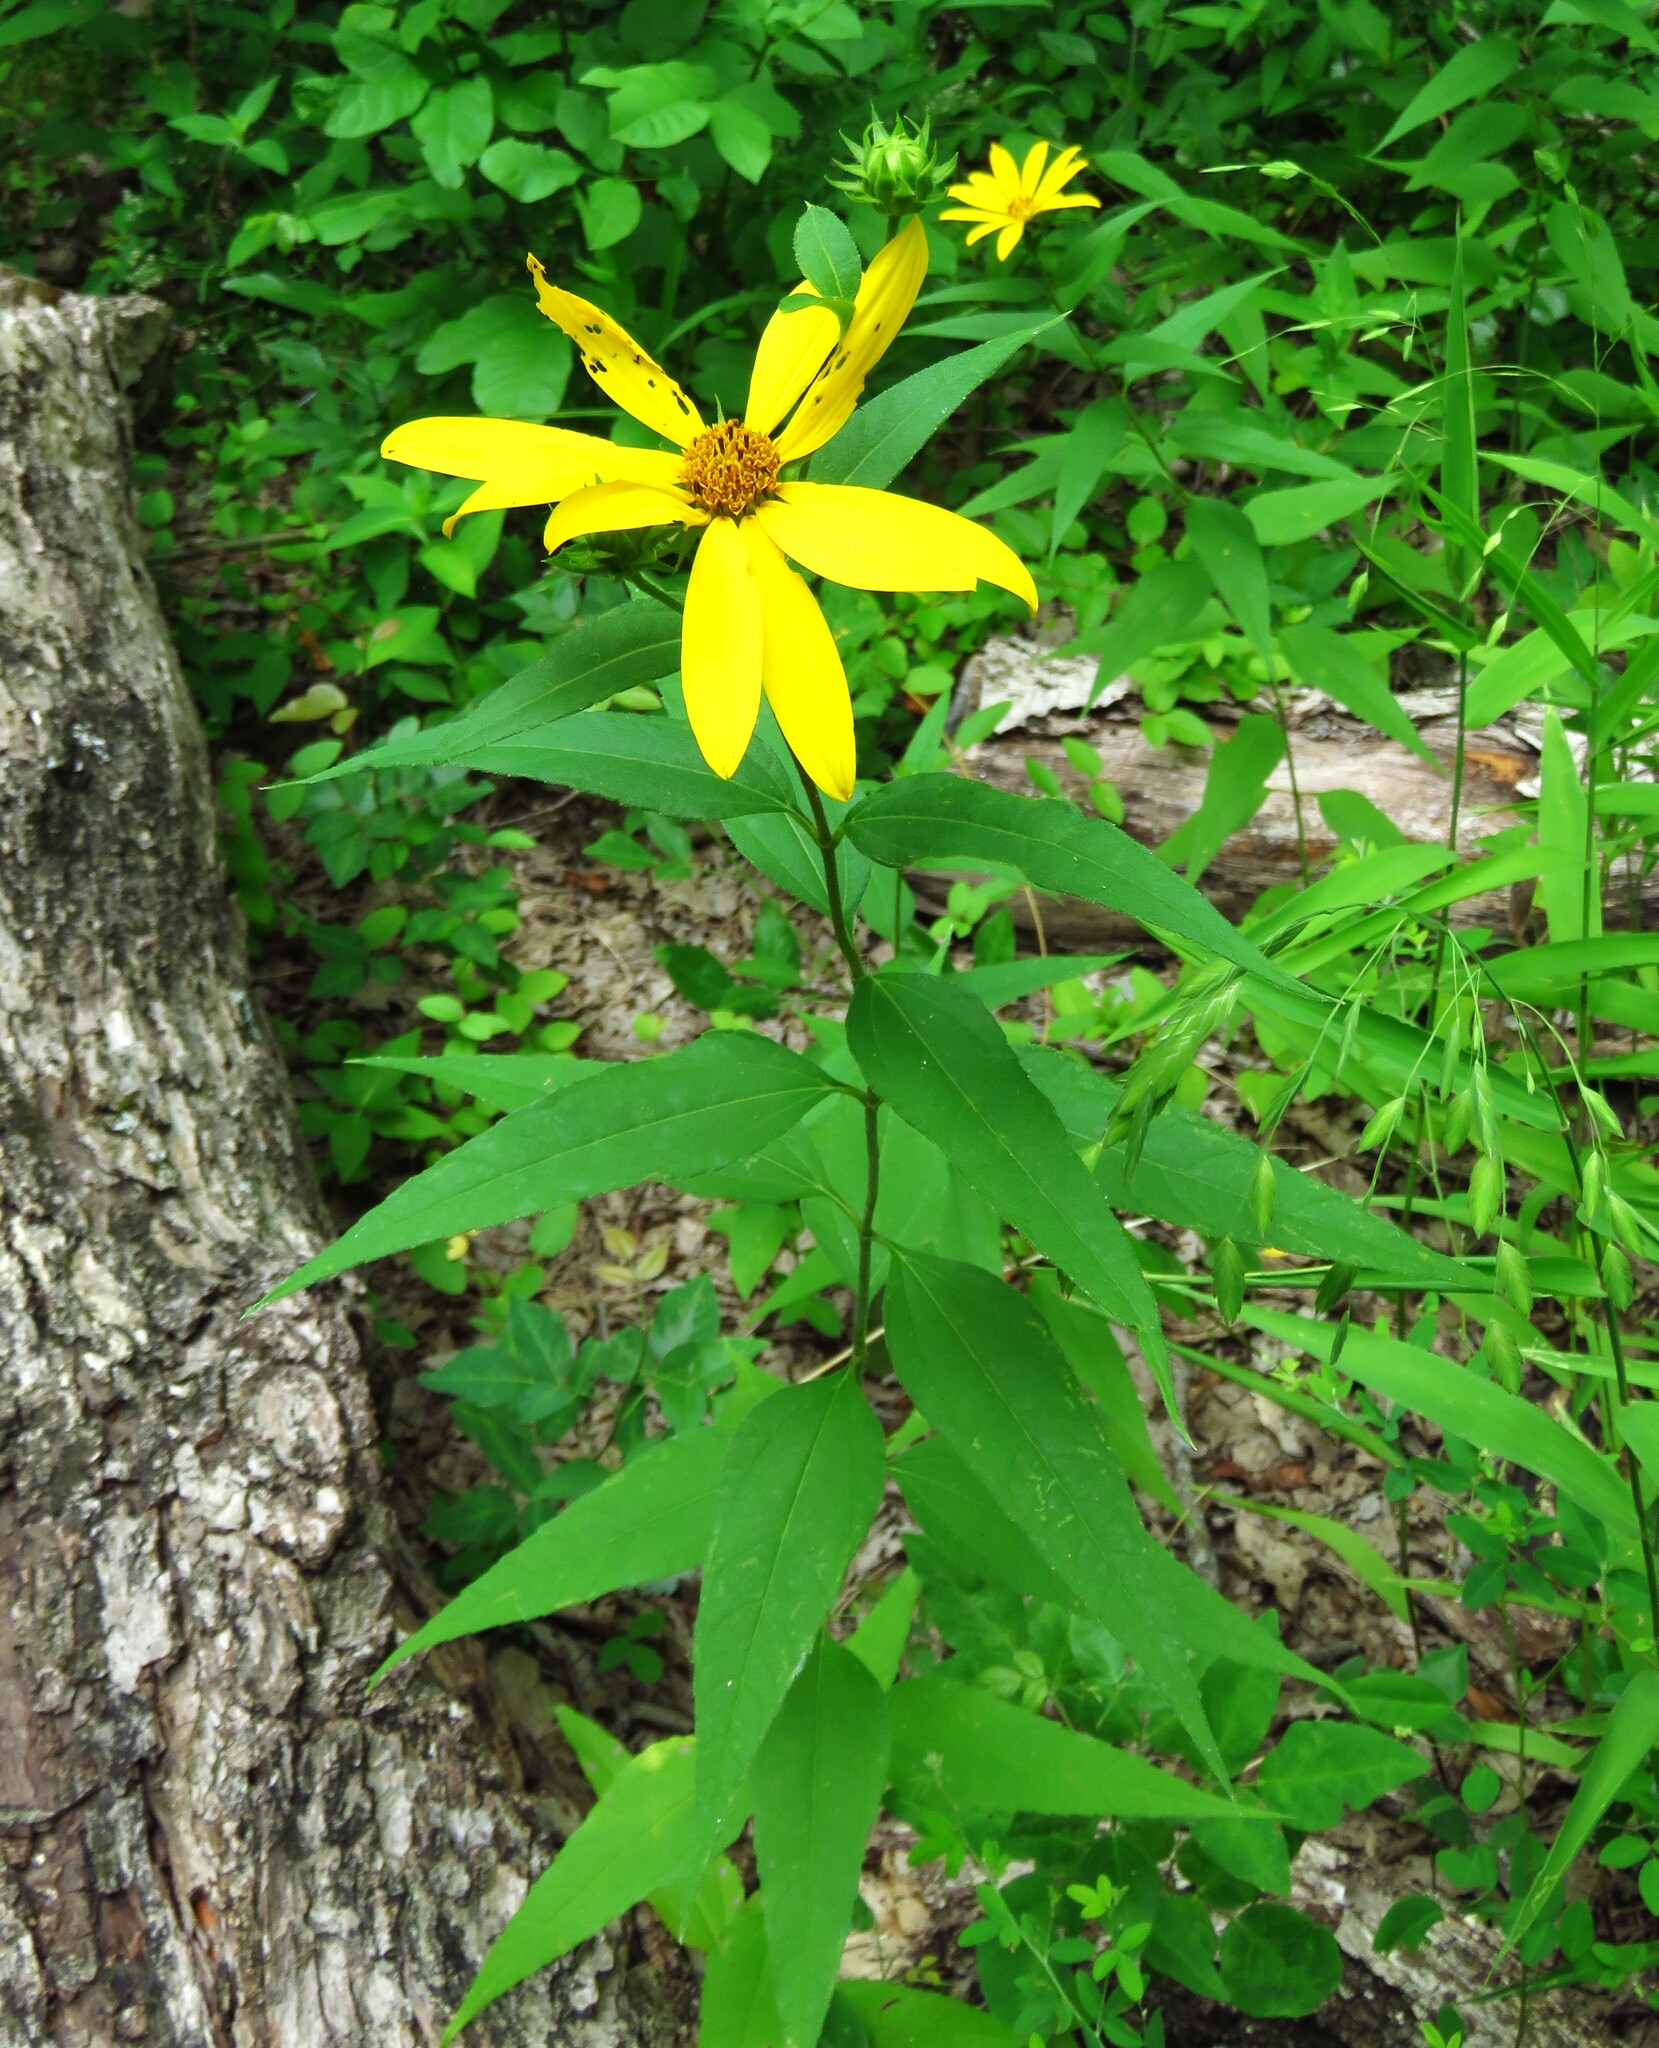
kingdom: Plantae
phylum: Tracheophyta
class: Magnoliopsida
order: Asterales
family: Asteraceae
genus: Helianthus
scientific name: Helianthus hirsutus
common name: Hairy sunflower
